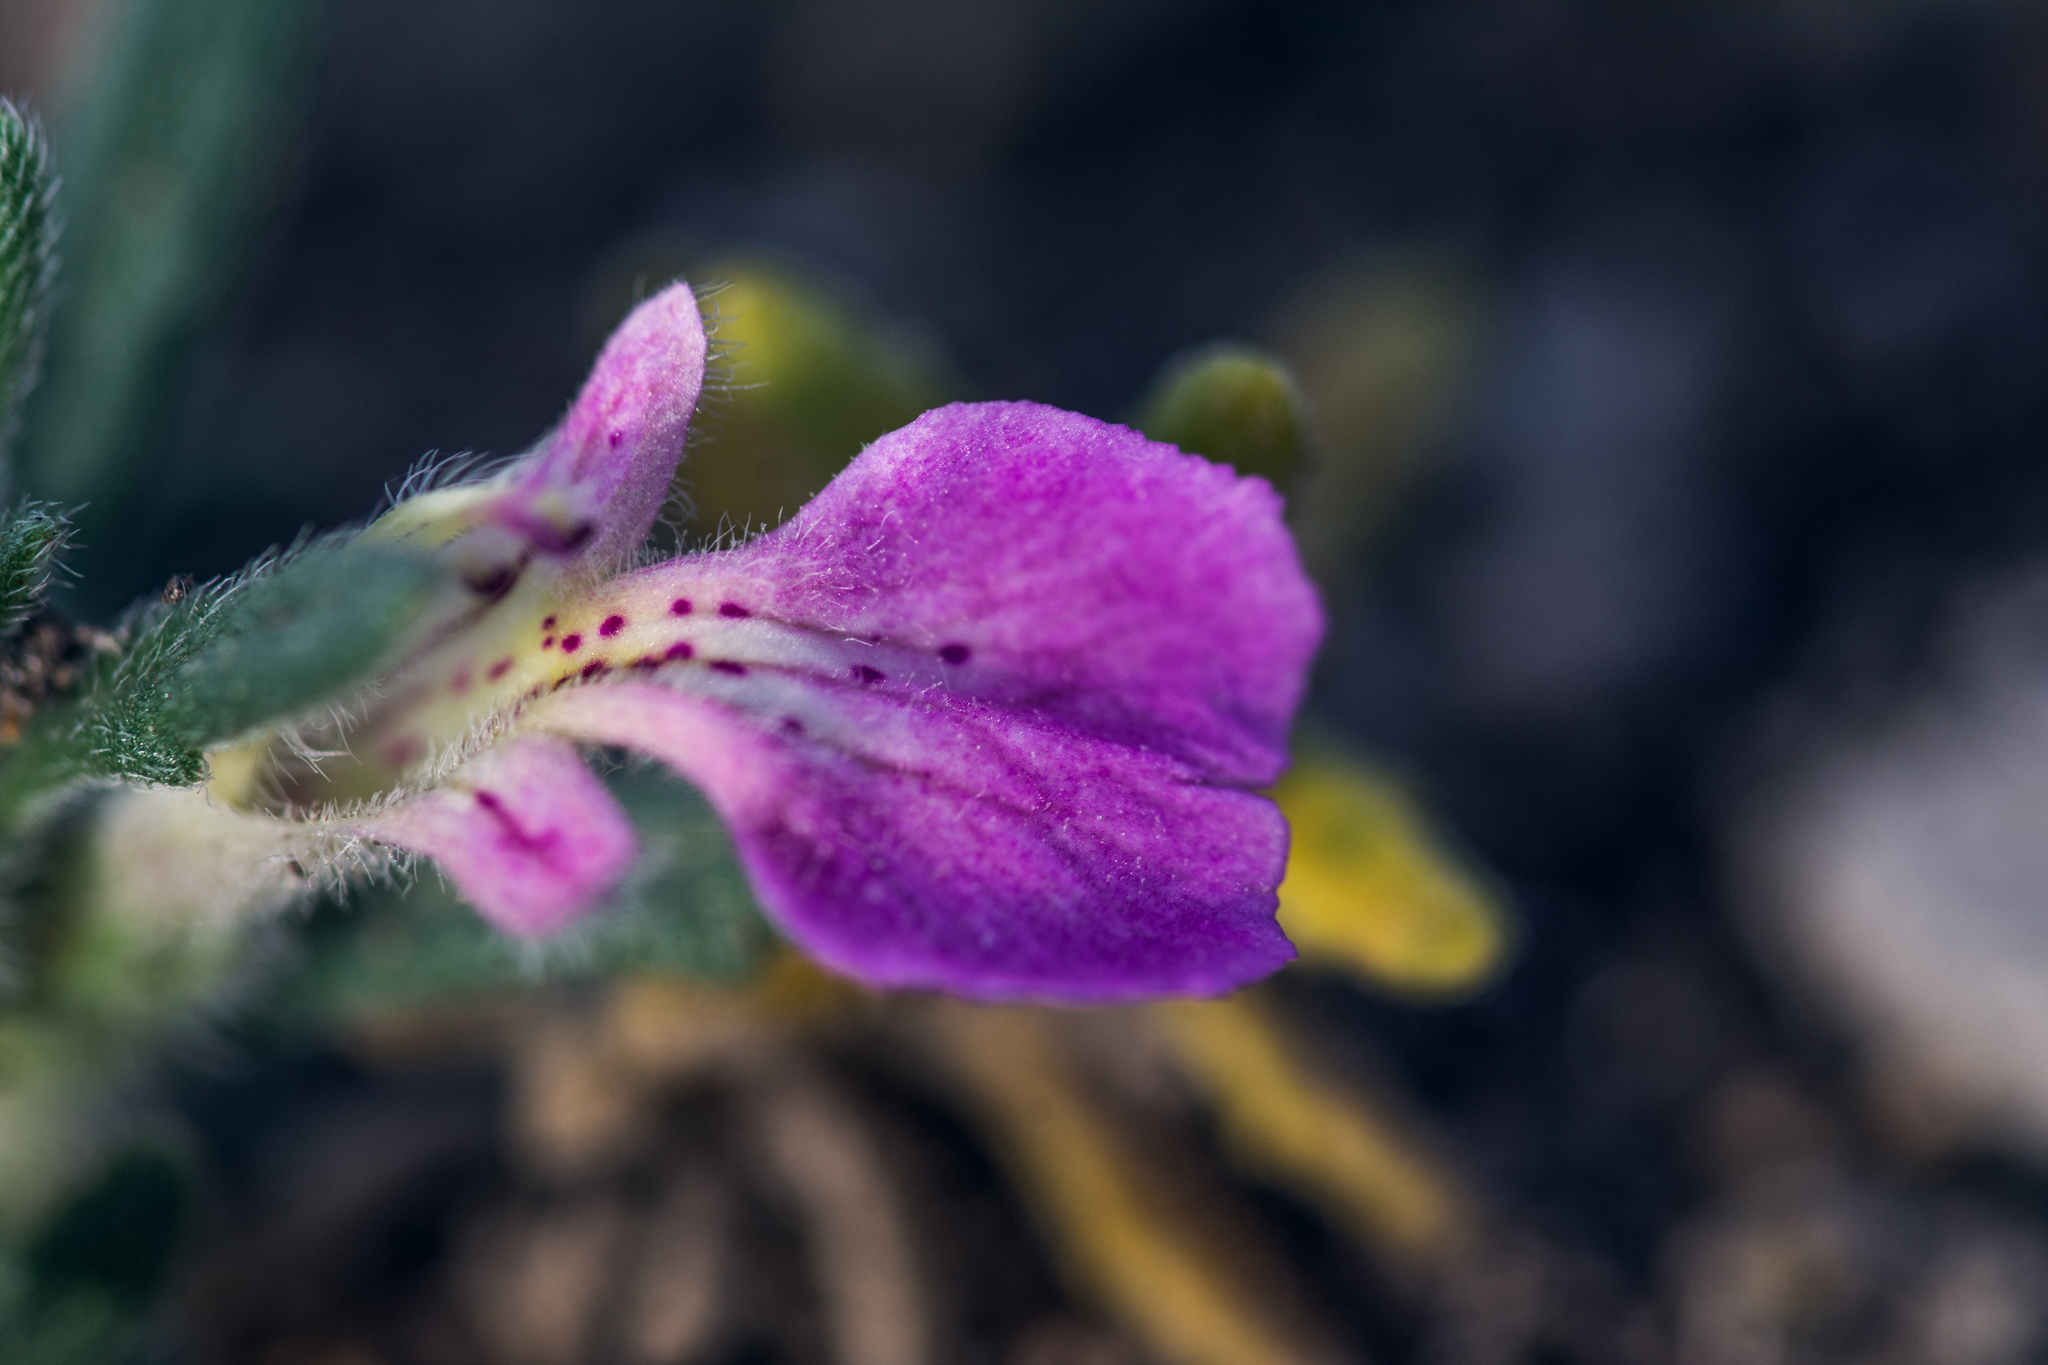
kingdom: Plantae
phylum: Tracheophyta
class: Magnoliopsida
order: Lamiales
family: Lamiaceae
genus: Ajuga
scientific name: Ajuga iva
